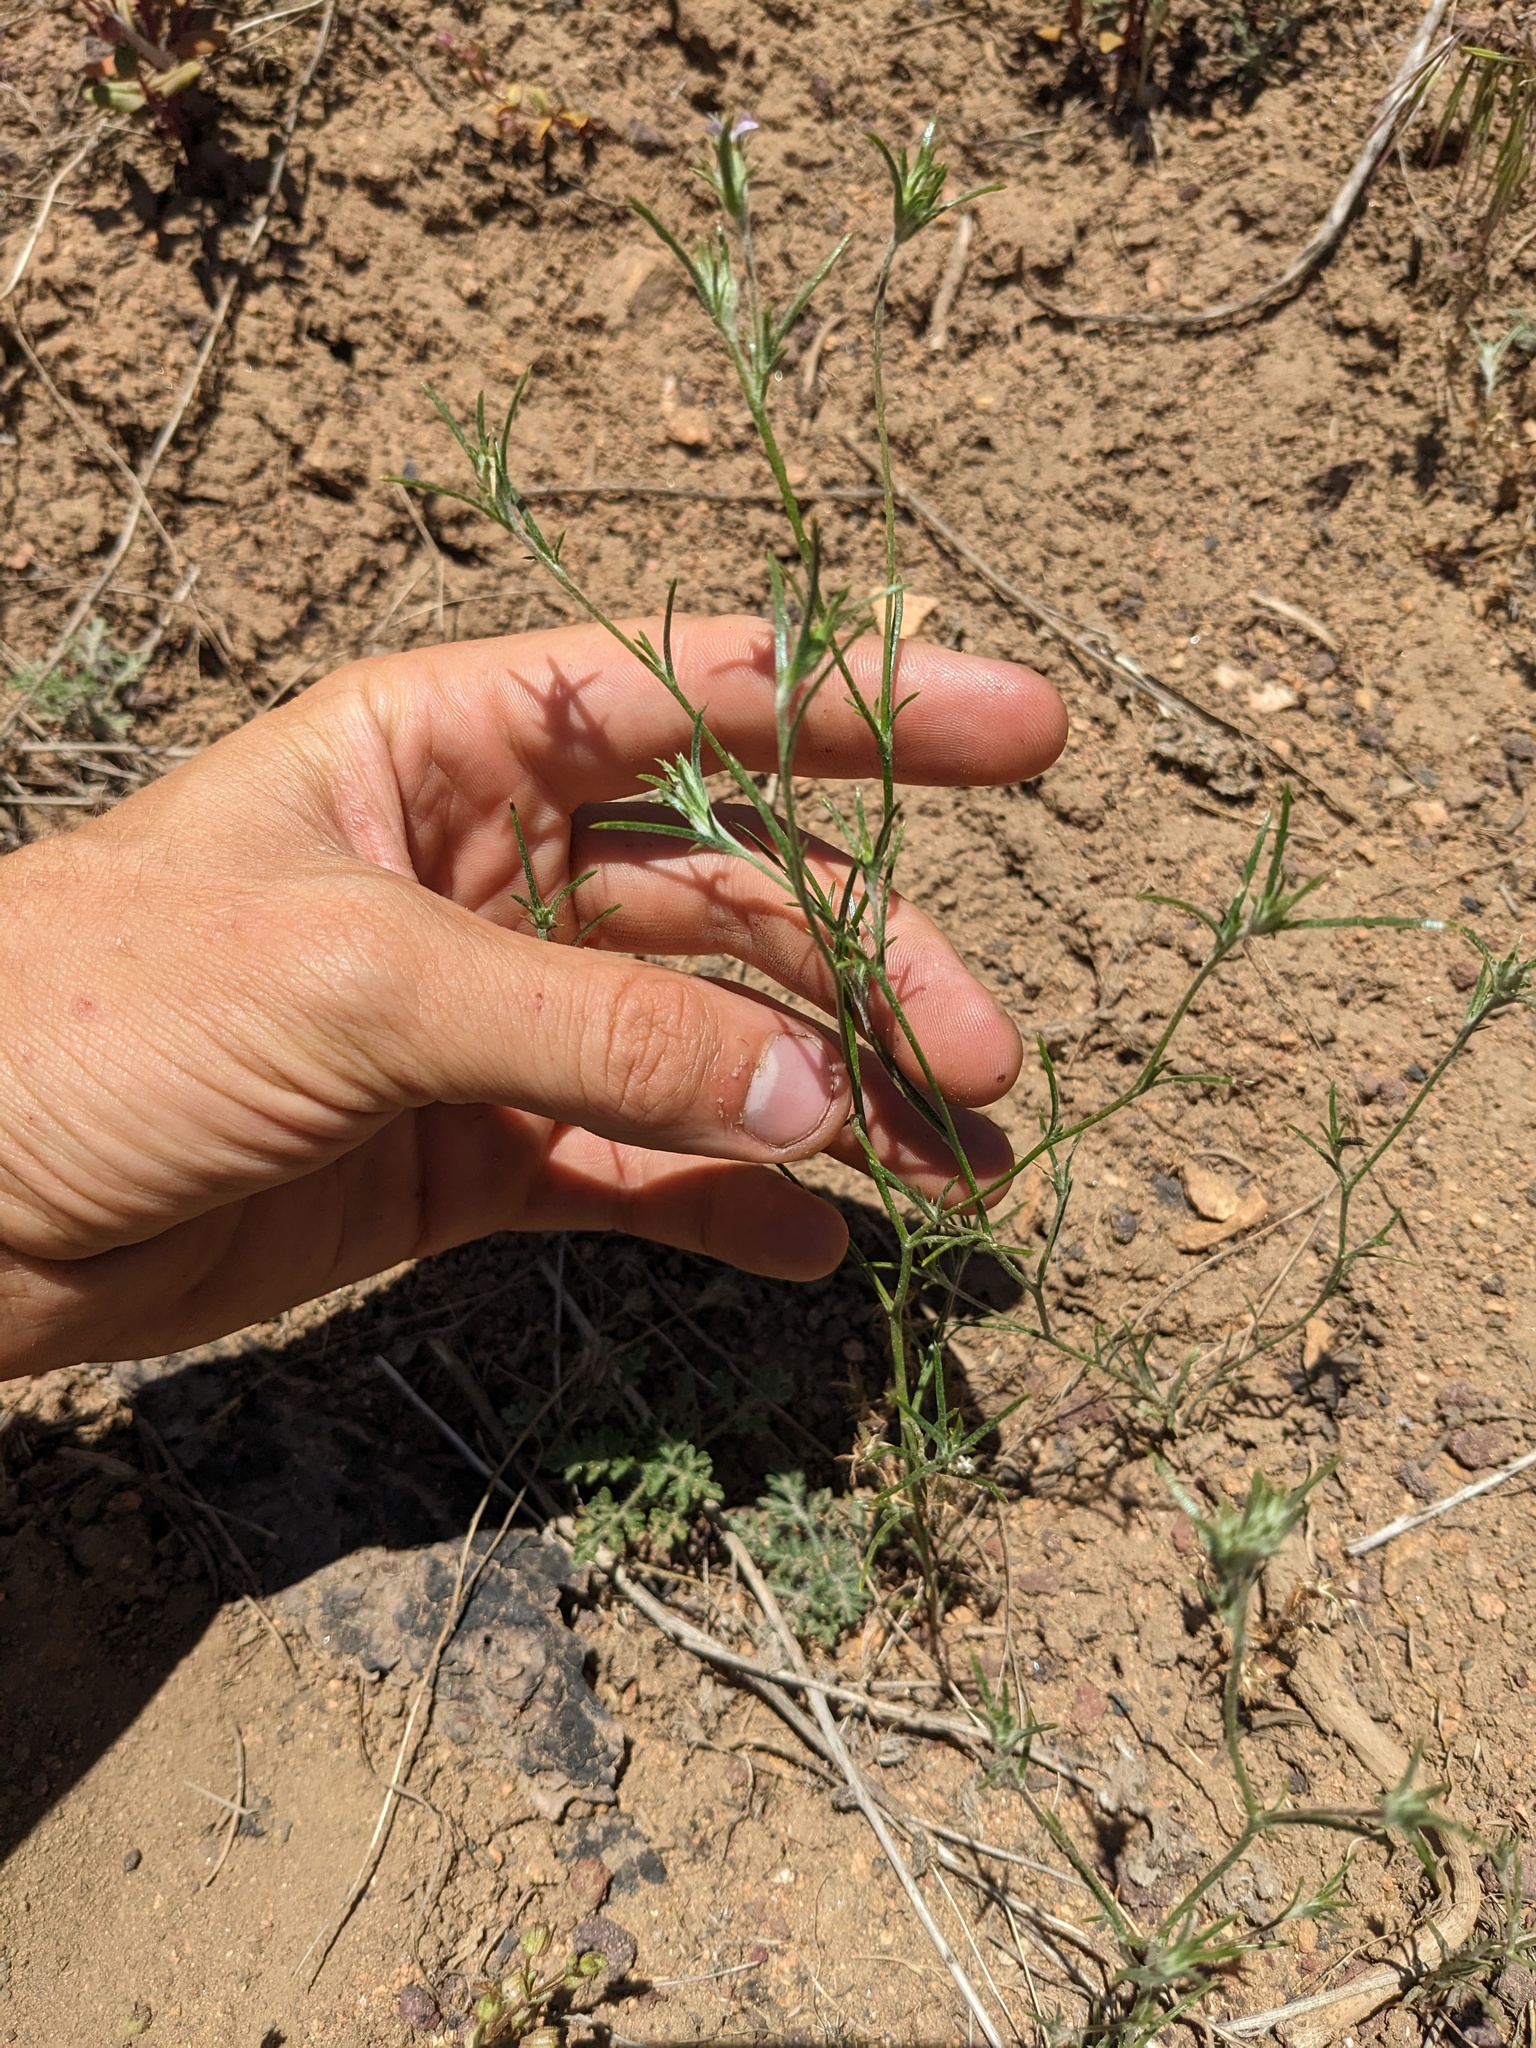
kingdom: Plantae
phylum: Tracheophyta
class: Magnoliopsida
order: Ericales
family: Polemoniaceae
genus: Eriastrum
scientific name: Eriastrum signatum
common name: Great basin woollystar
